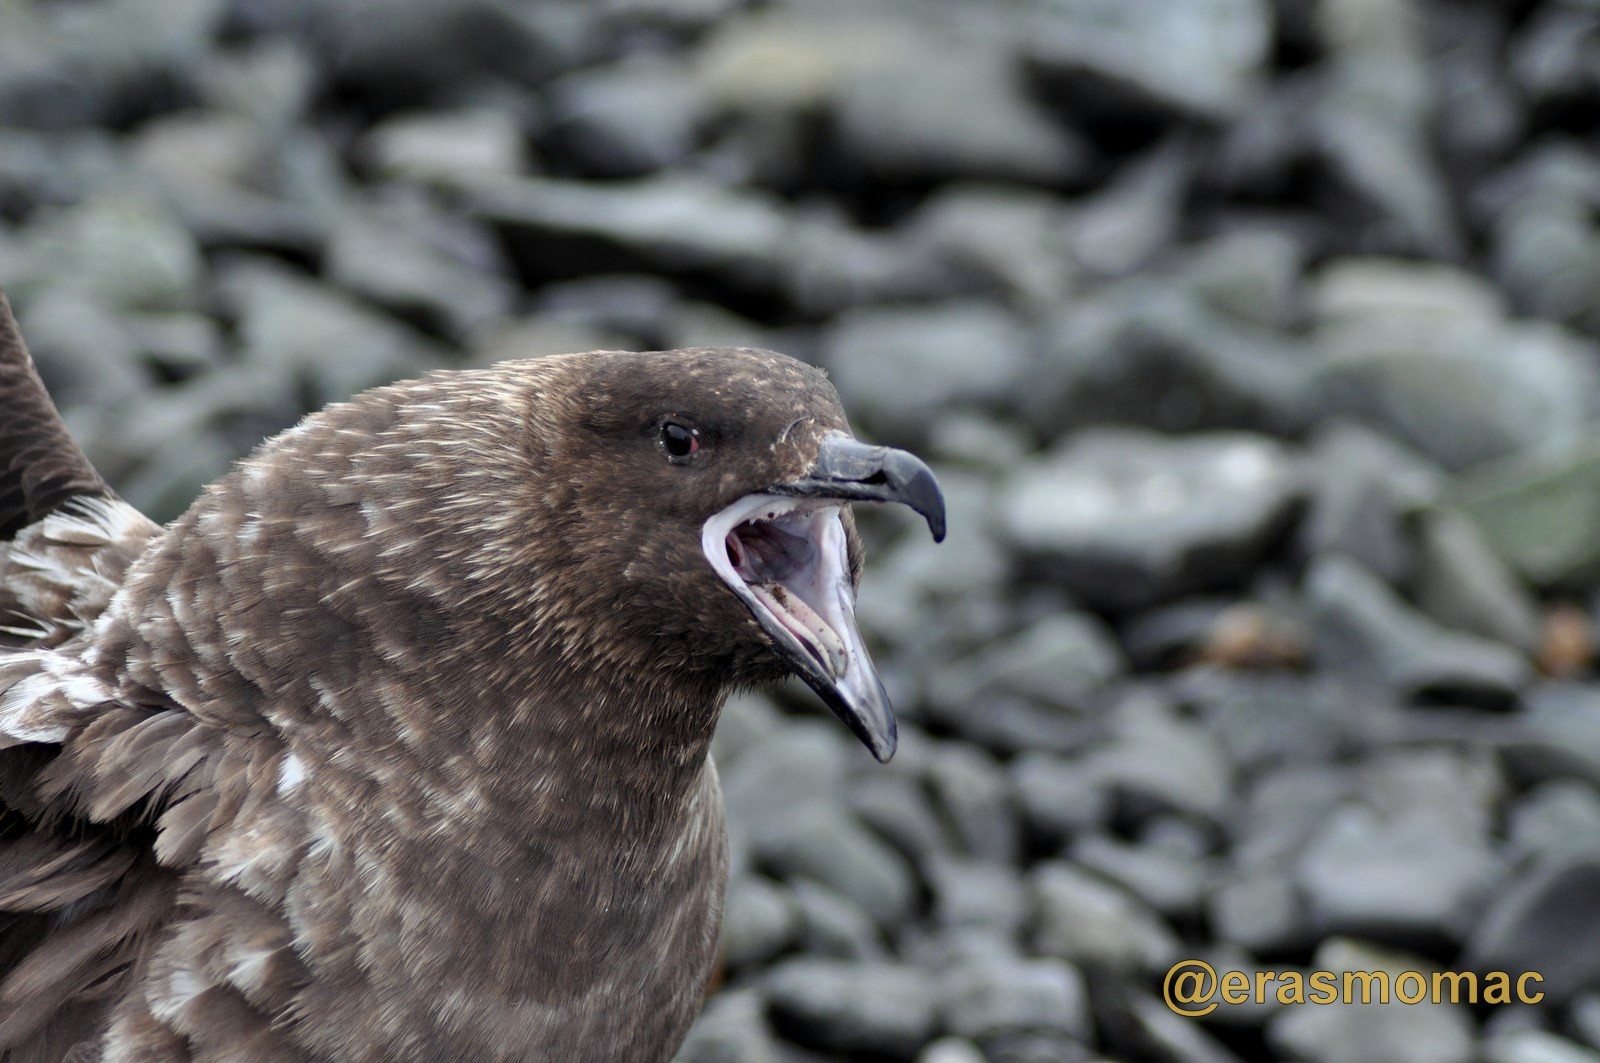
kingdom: Animalia
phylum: Chordata
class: Aves
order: Charadriiformes
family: Stercorariidae
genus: Stercorarius
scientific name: Stercorarius antarcticus
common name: Brown skua
